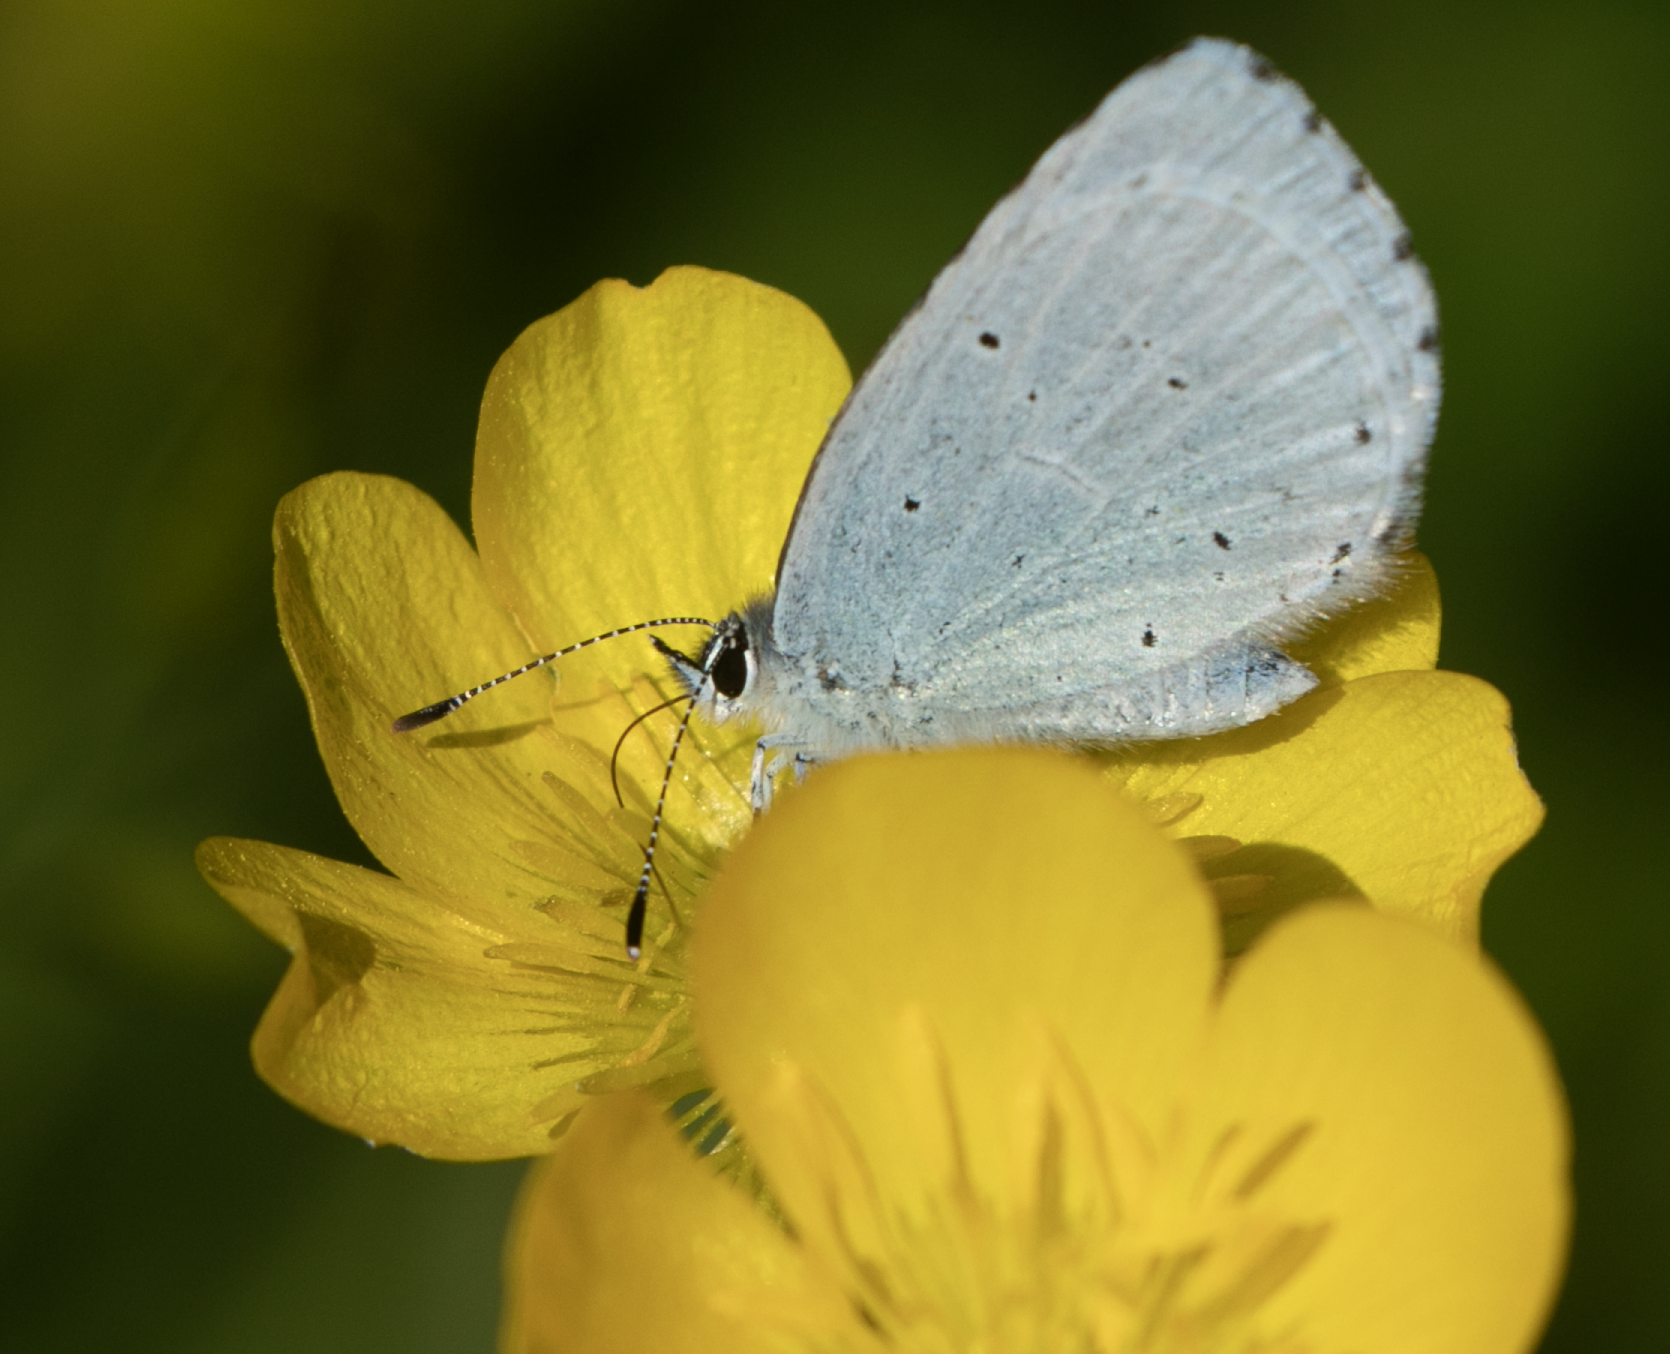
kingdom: Animalia
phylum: Arthropoda
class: Insecta
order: Lepidoptera
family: Lycaenidae
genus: Celastrina
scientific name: Celastrina argiolus
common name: Holly blue
